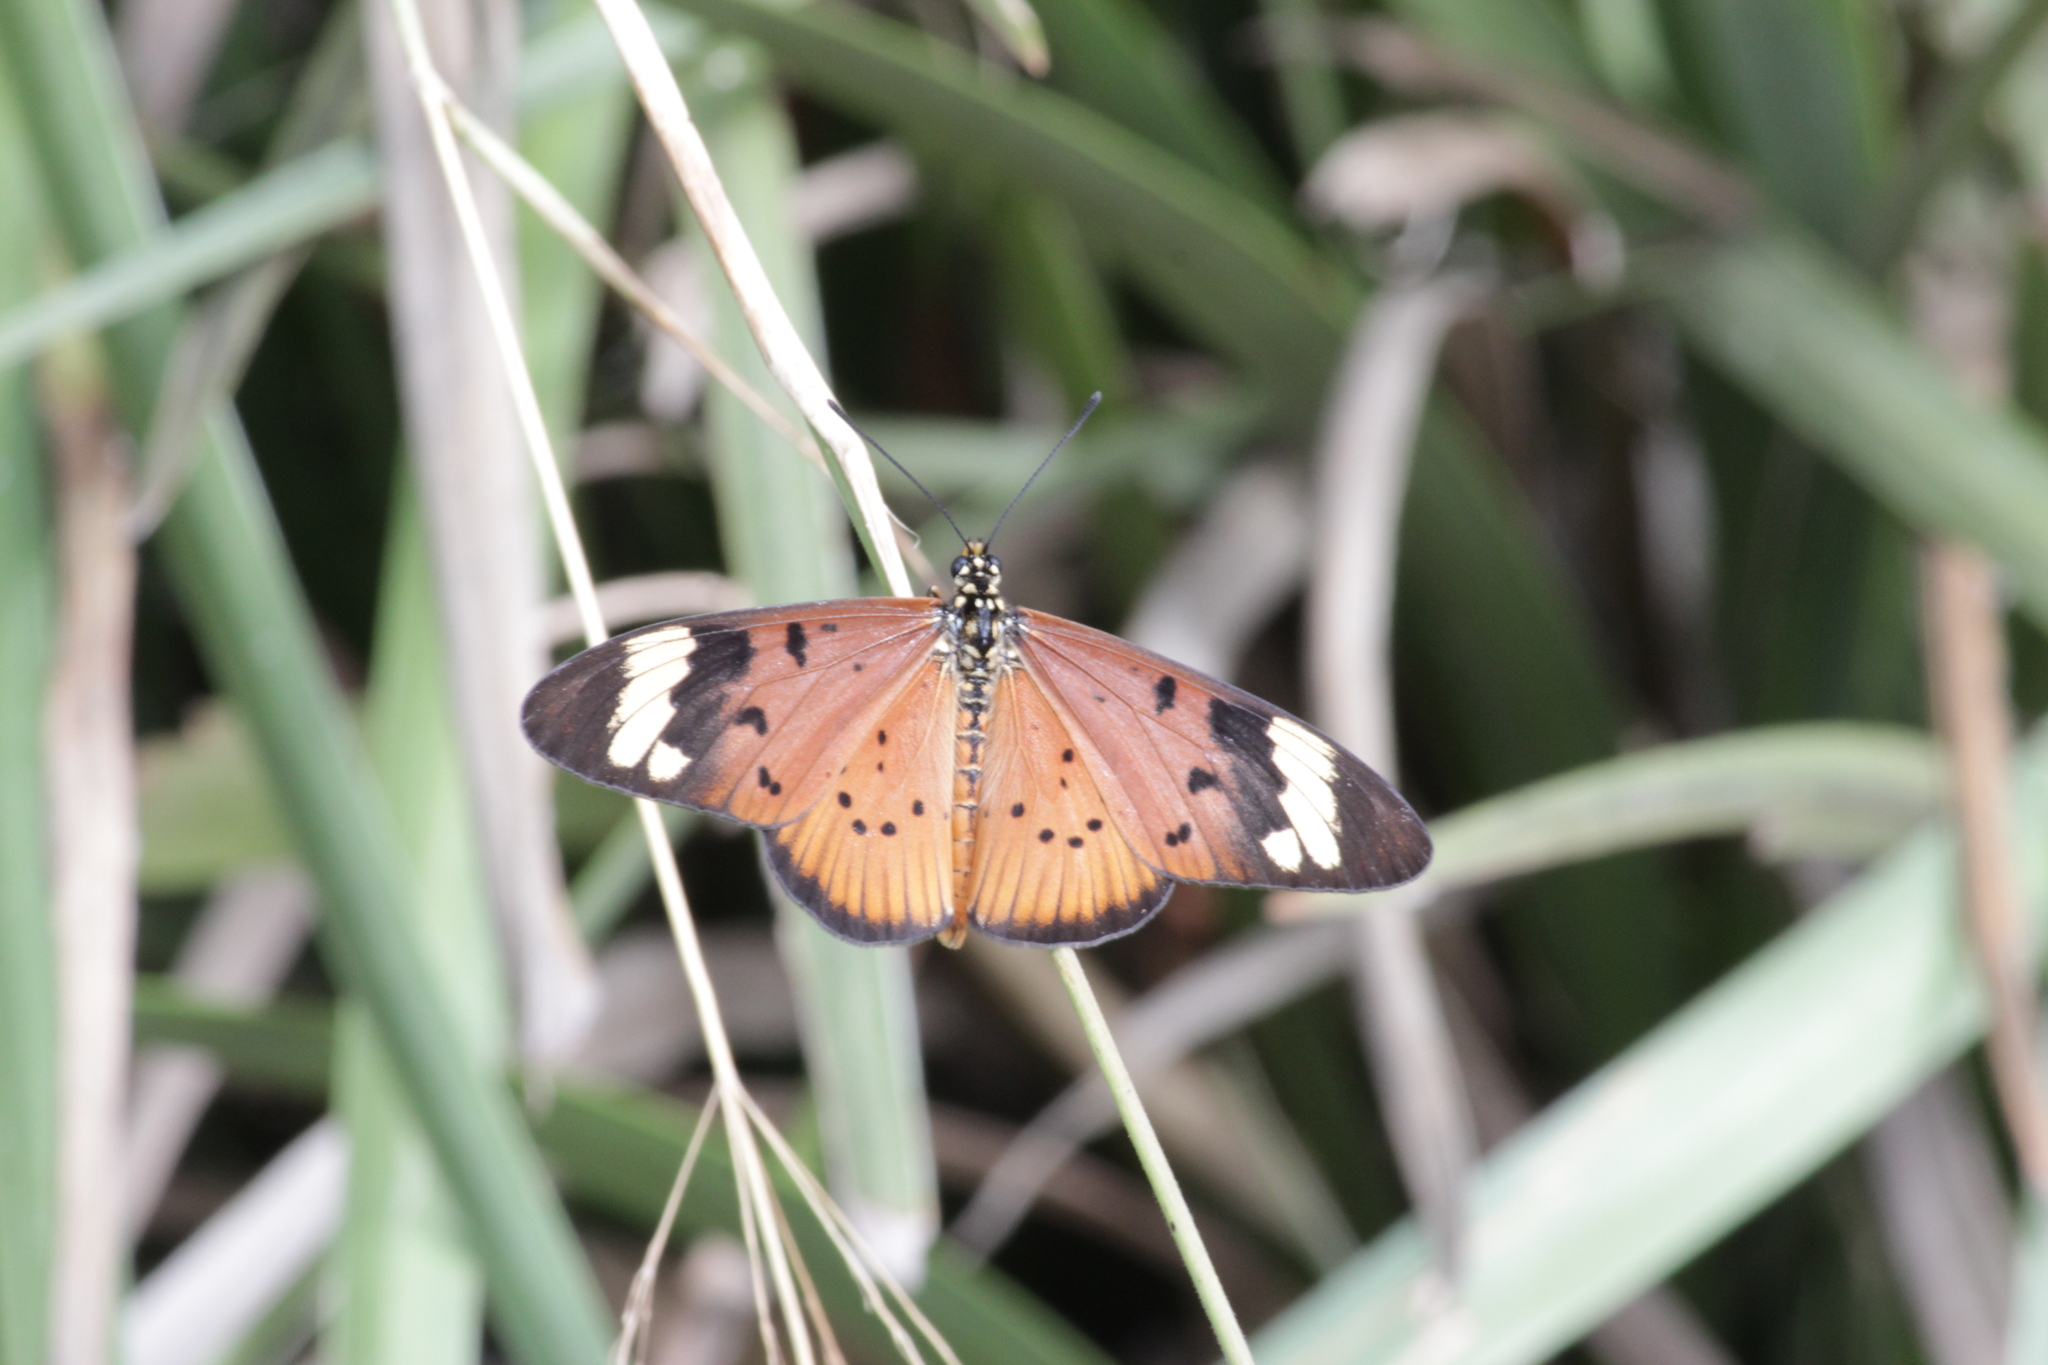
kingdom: Animalia
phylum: Arthropoda
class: Insecta
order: Lepidoptera
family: Nymphalidae
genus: Acraea
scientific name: Acraea Telchinia encedon
